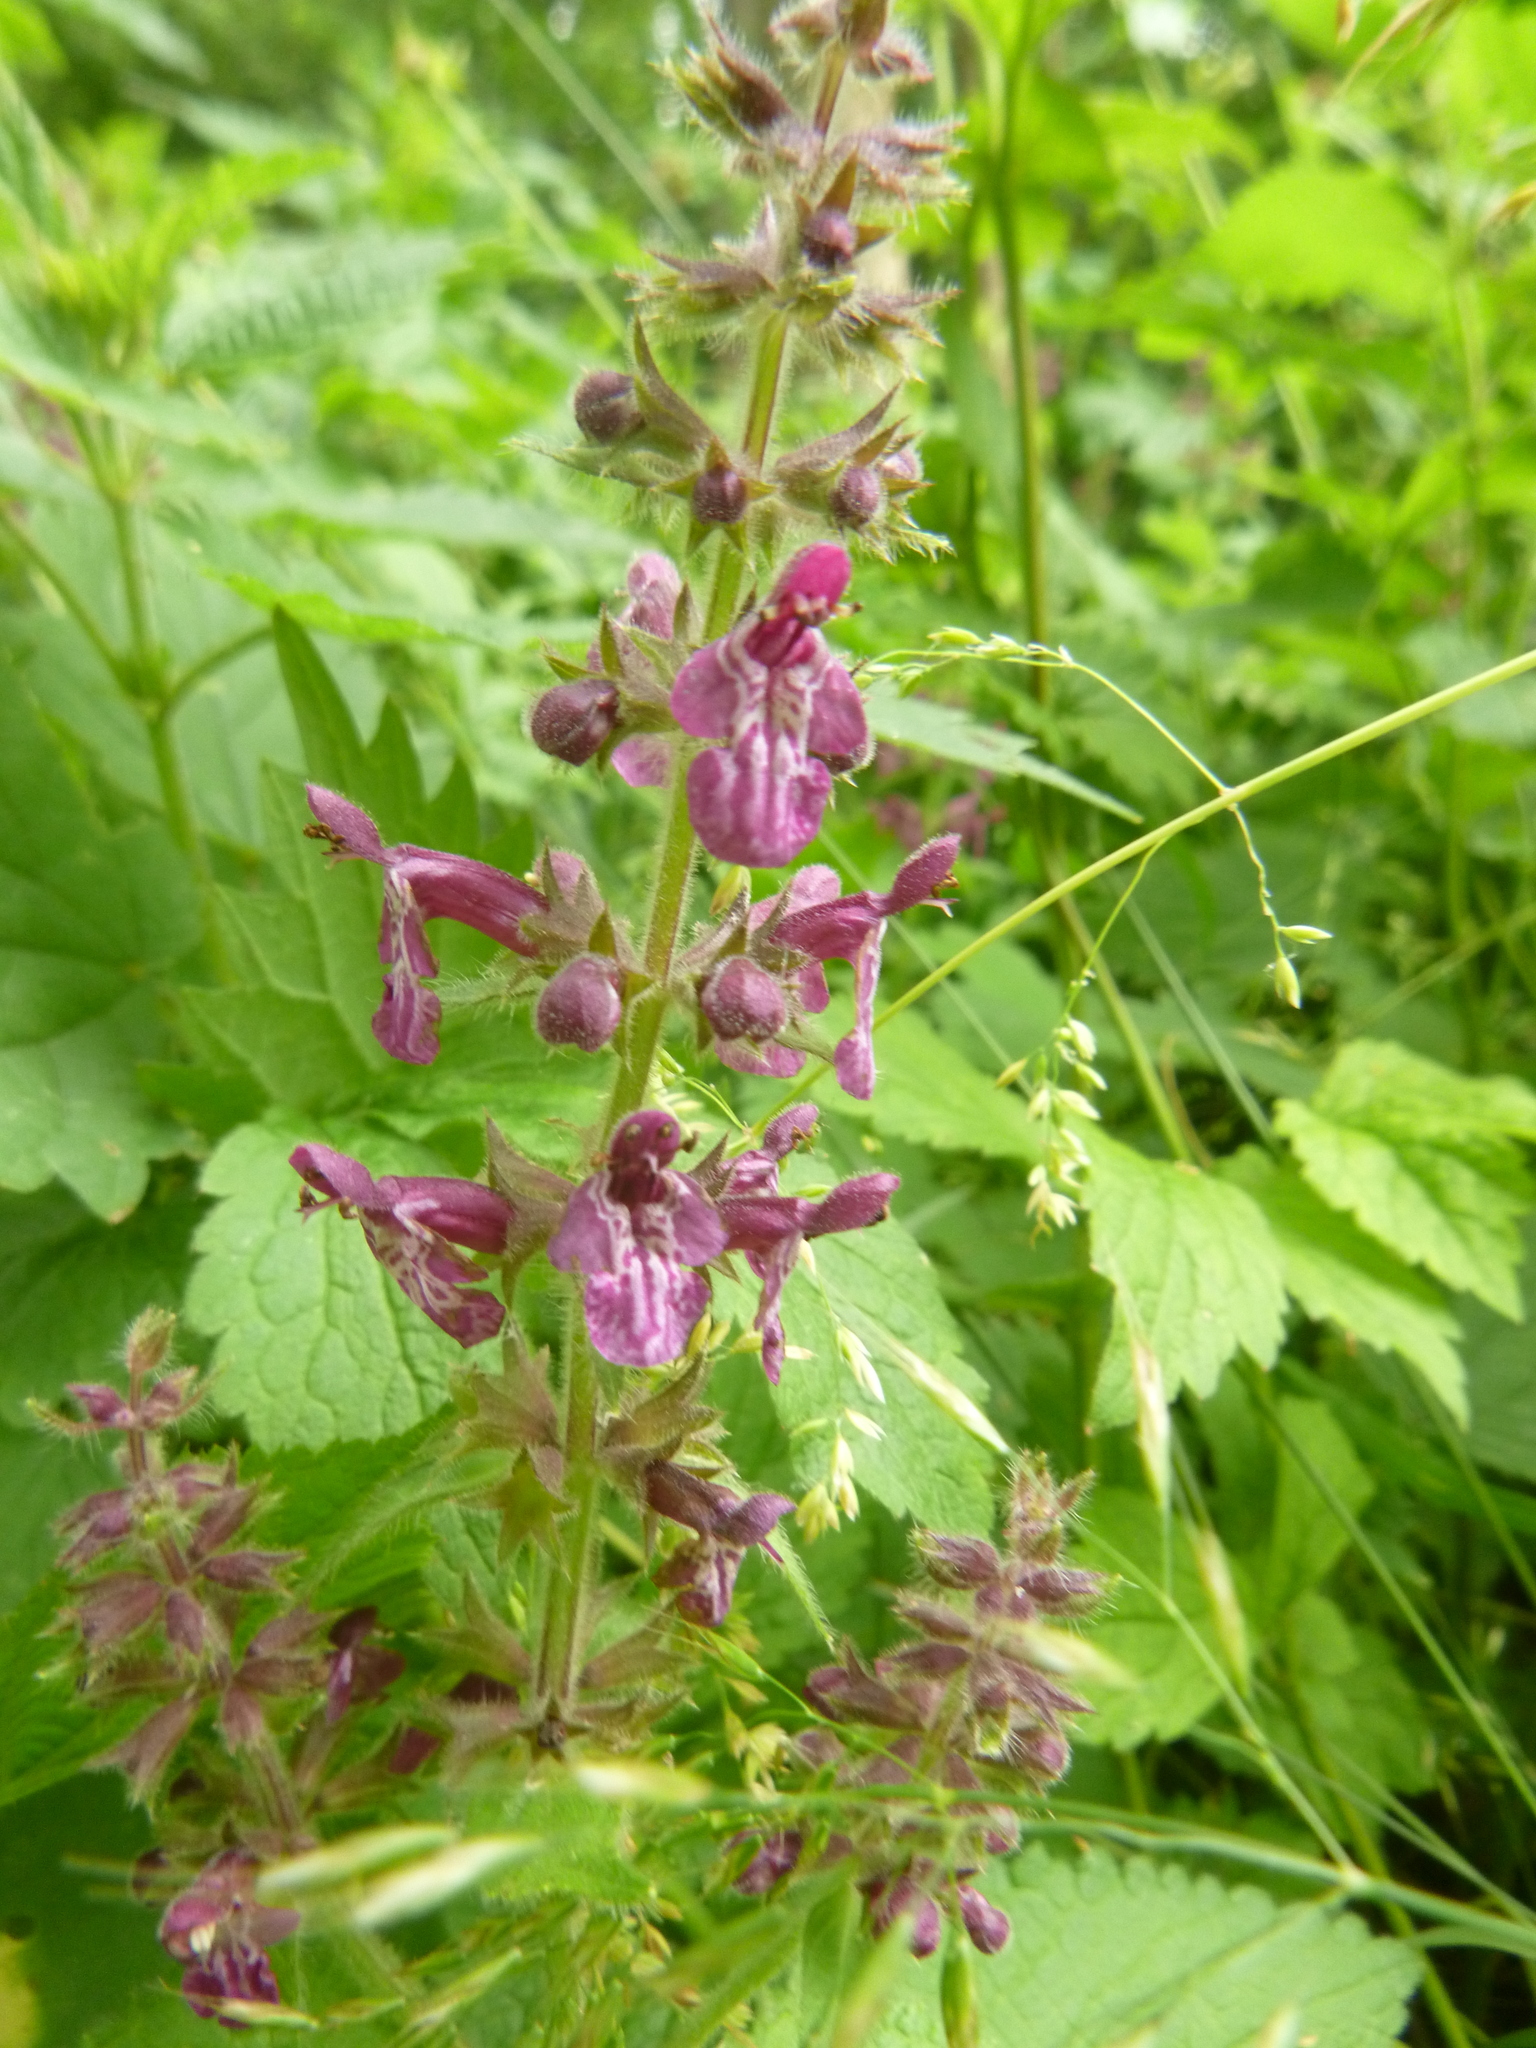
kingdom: Plantae
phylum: Tracheophyta
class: Magnoliopsida
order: Lamiales
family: Lamiaceae
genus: Stachys
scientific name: Stachys sylvatica
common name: Hedge woundwort
